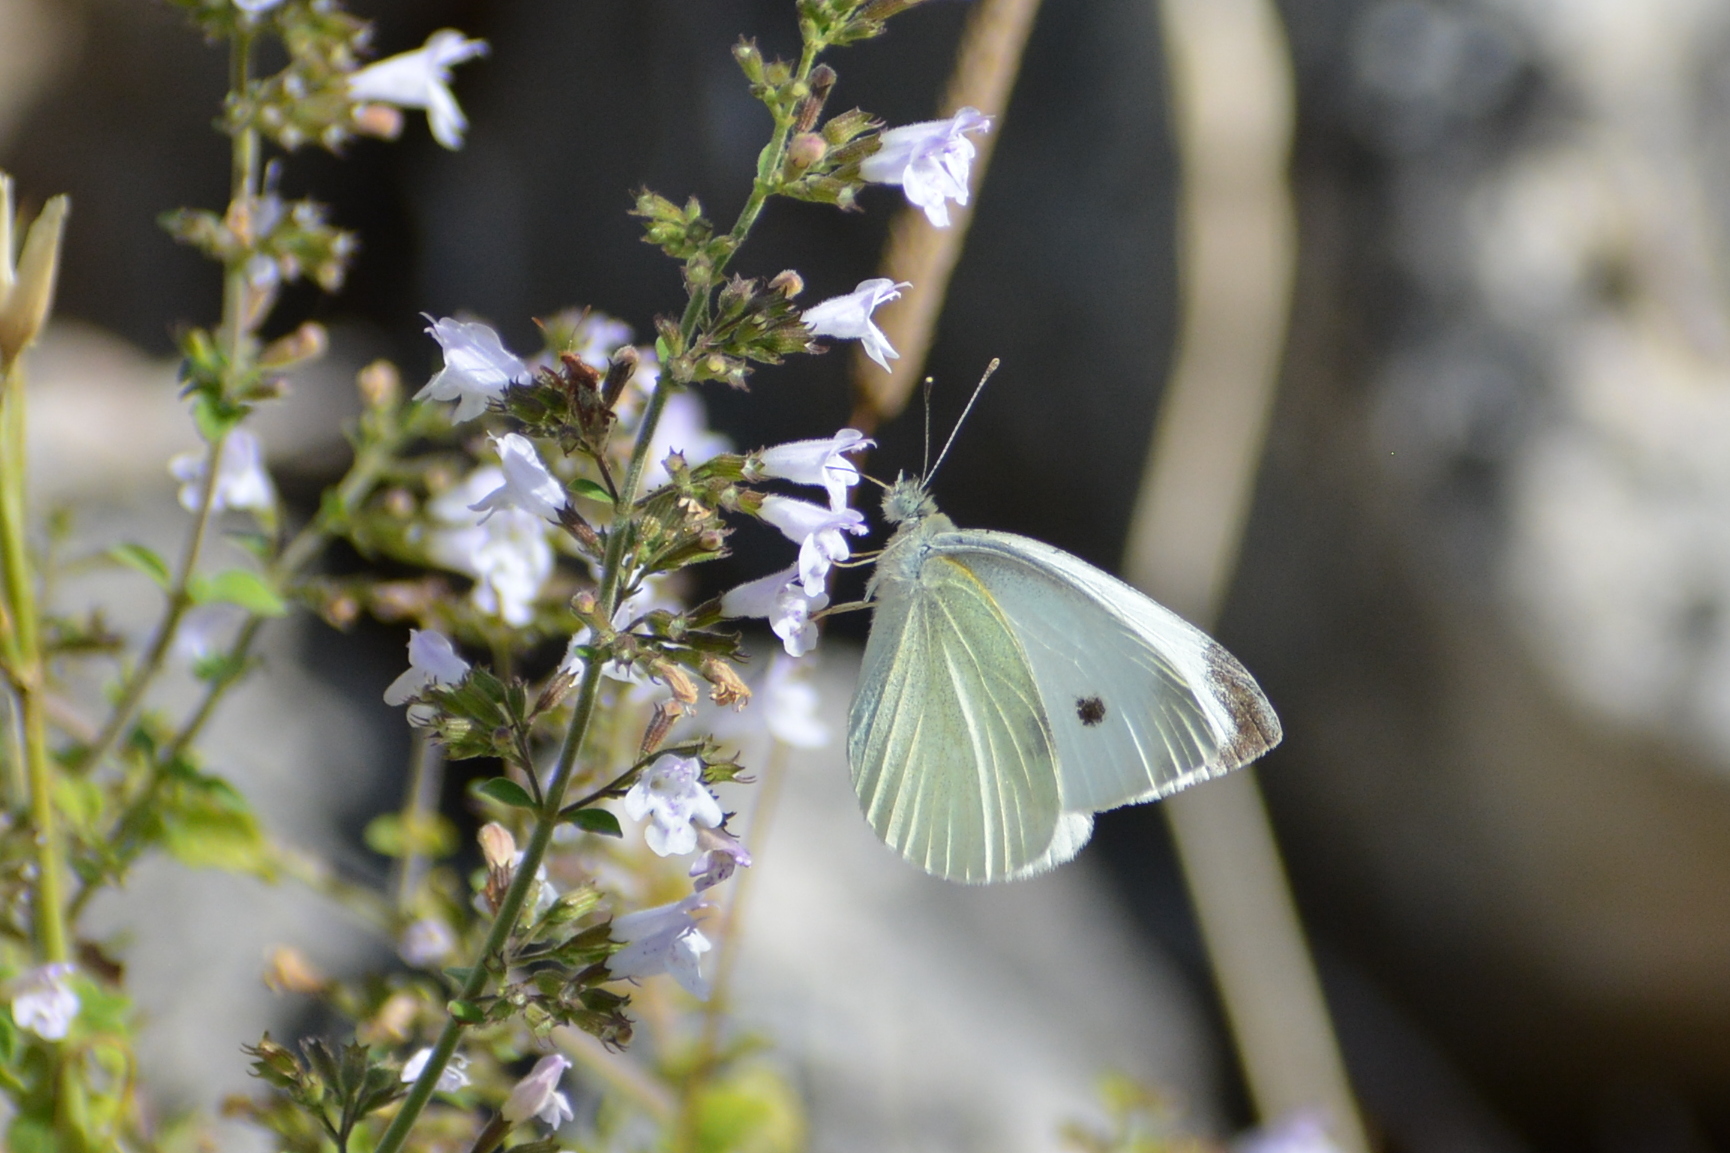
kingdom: Animalia
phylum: Arthropoda
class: Insecta
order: Lepidoptera
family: Pieridae
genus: Pieris
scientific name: Pieris rapae
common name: Small white
